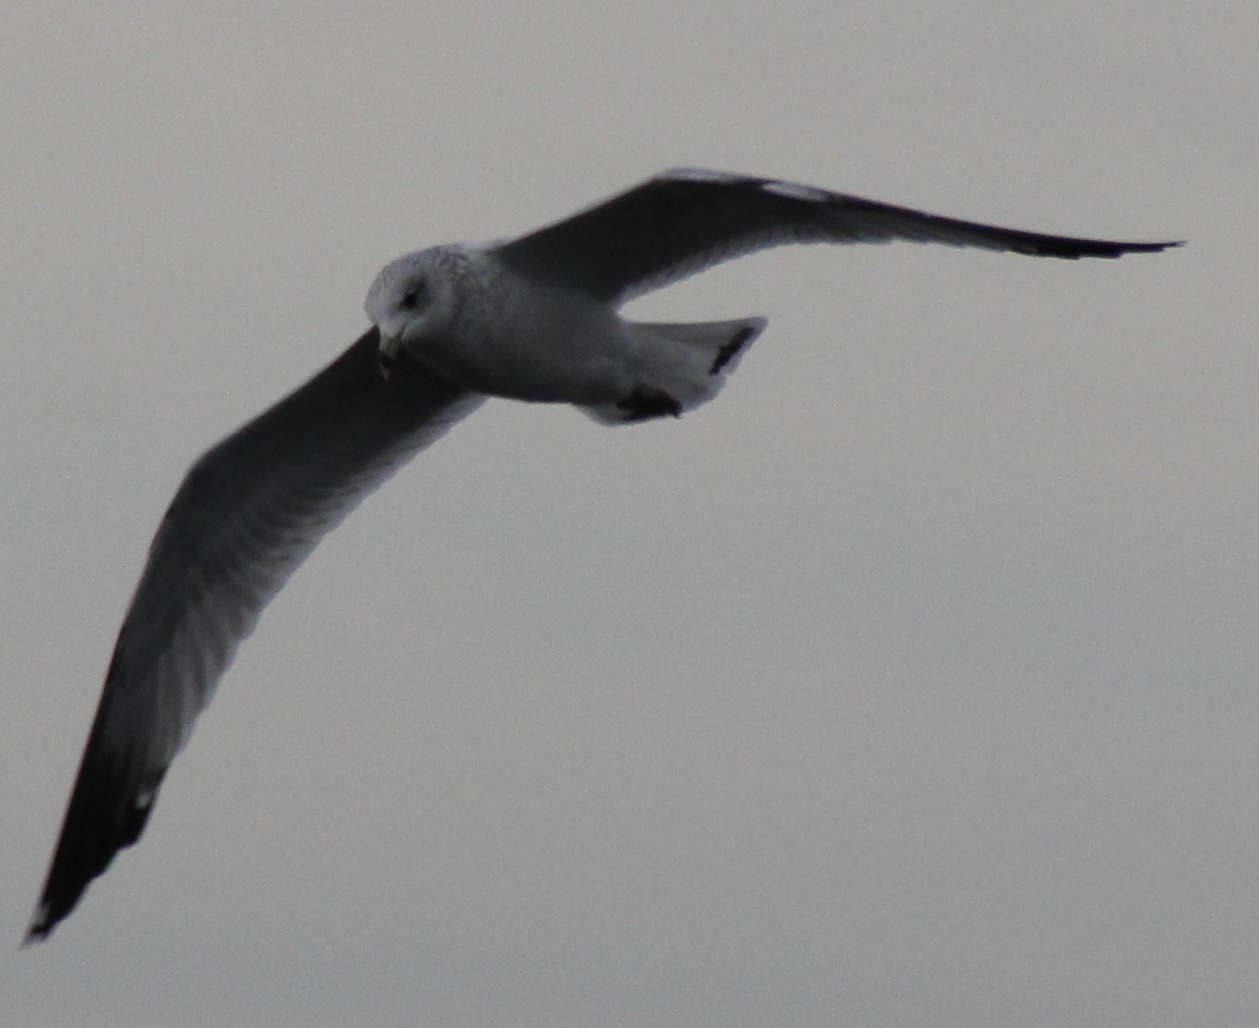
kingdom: Animalia
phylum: Chordata
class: Aves
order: Charadriiformes
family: Laridae
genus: Larus
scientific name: Larus delawarensis
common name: Ring-billed gull
